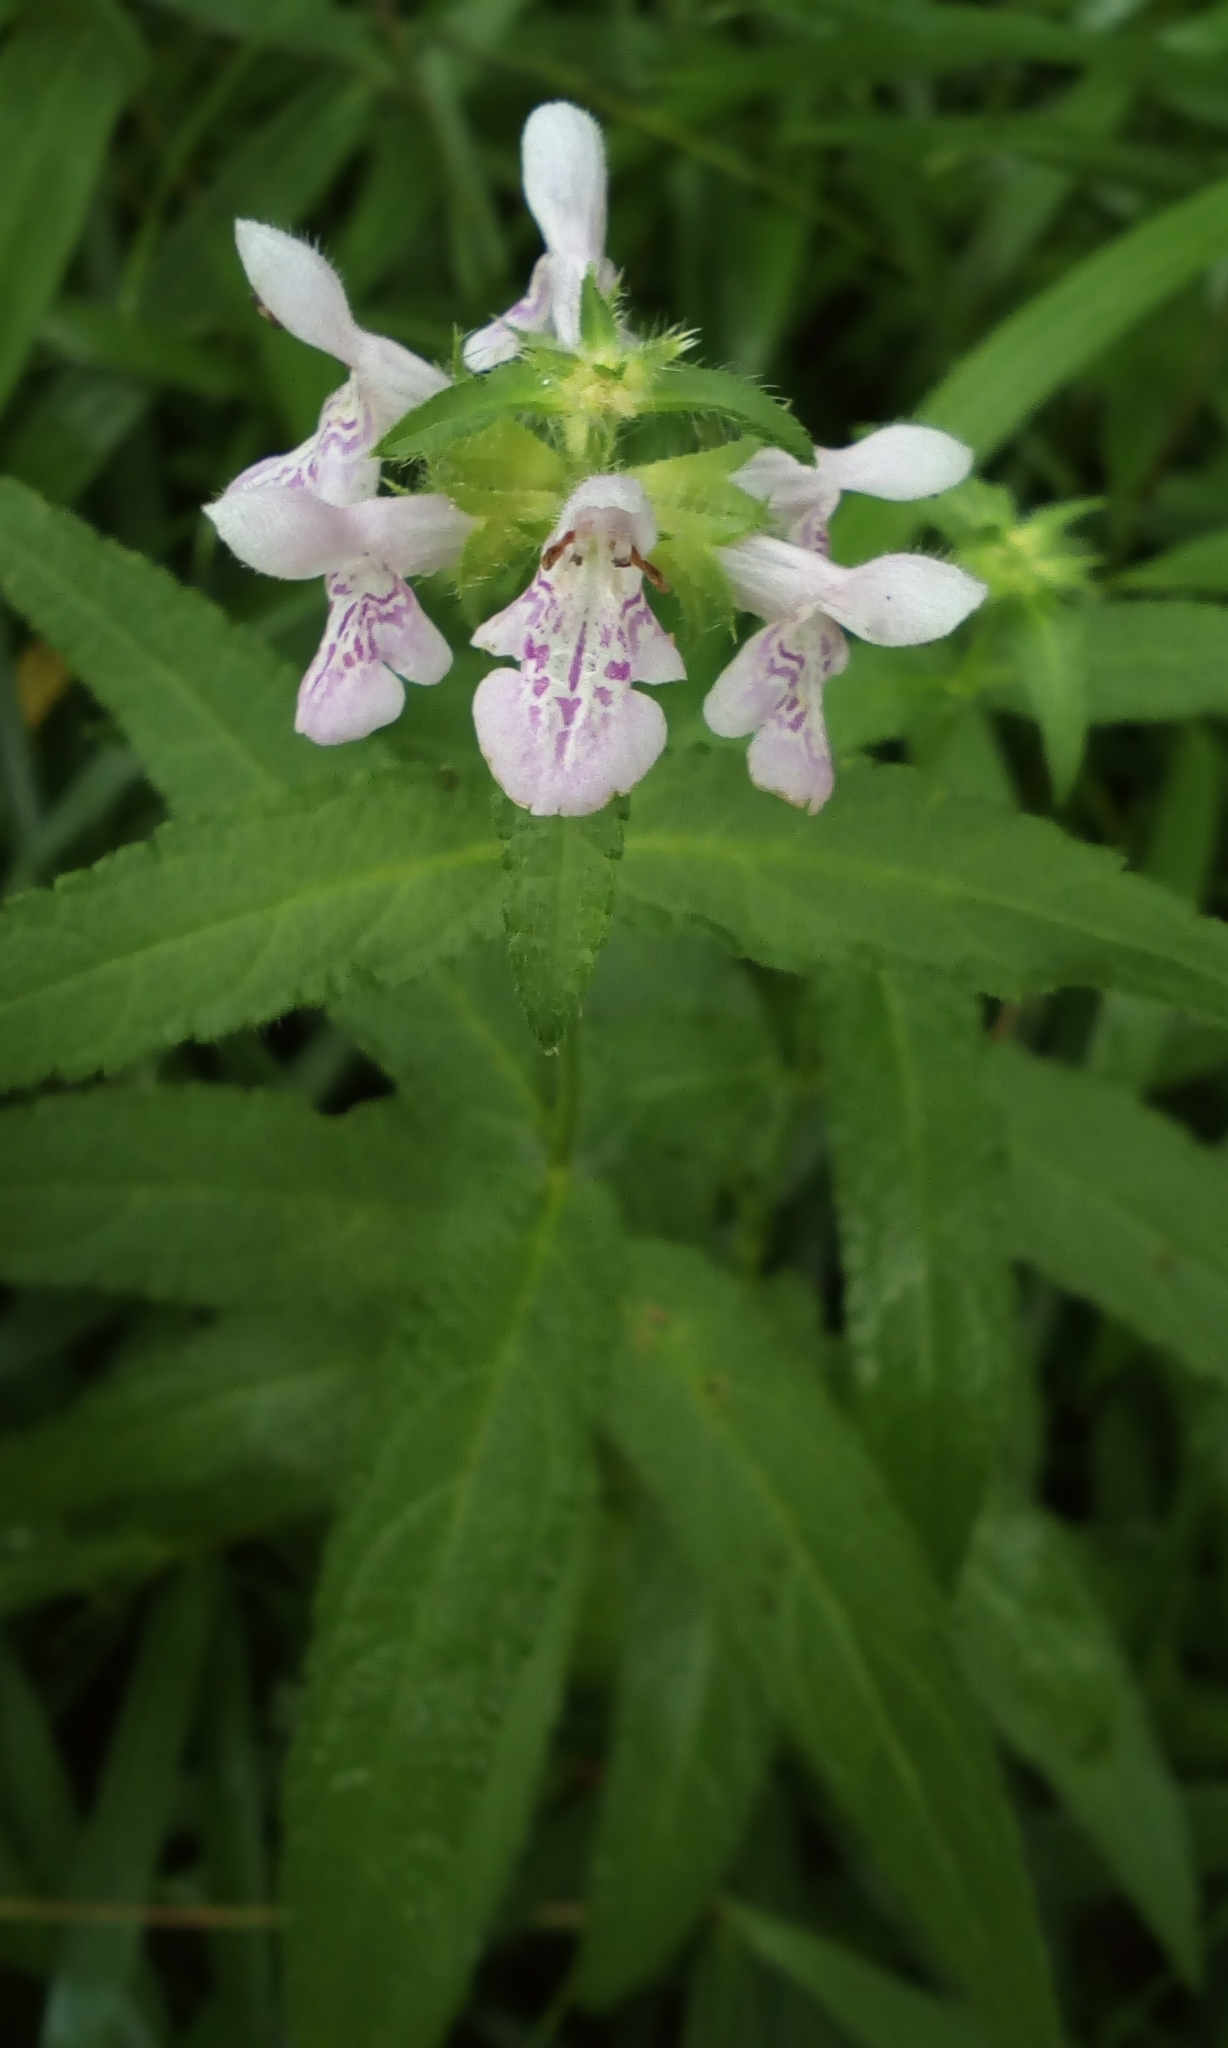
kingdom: Plantae
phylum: Tracheophyta
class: Magnoliopsida
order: Lamiales
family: Lamiaceae
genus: Stachys
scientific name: Stachys aspera
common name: Hyssopleaf hedgenettle
